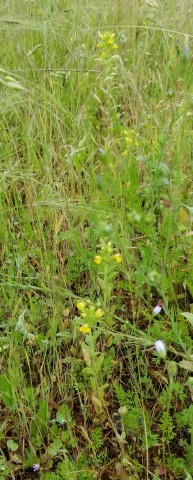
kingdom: Plantae
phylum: Tracheophyta
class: Magnoliopsida
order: Lamiales
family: Orobanchaceae
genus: Bellardia
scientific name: Bellardia viscosa
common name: Sticky parentucellia
